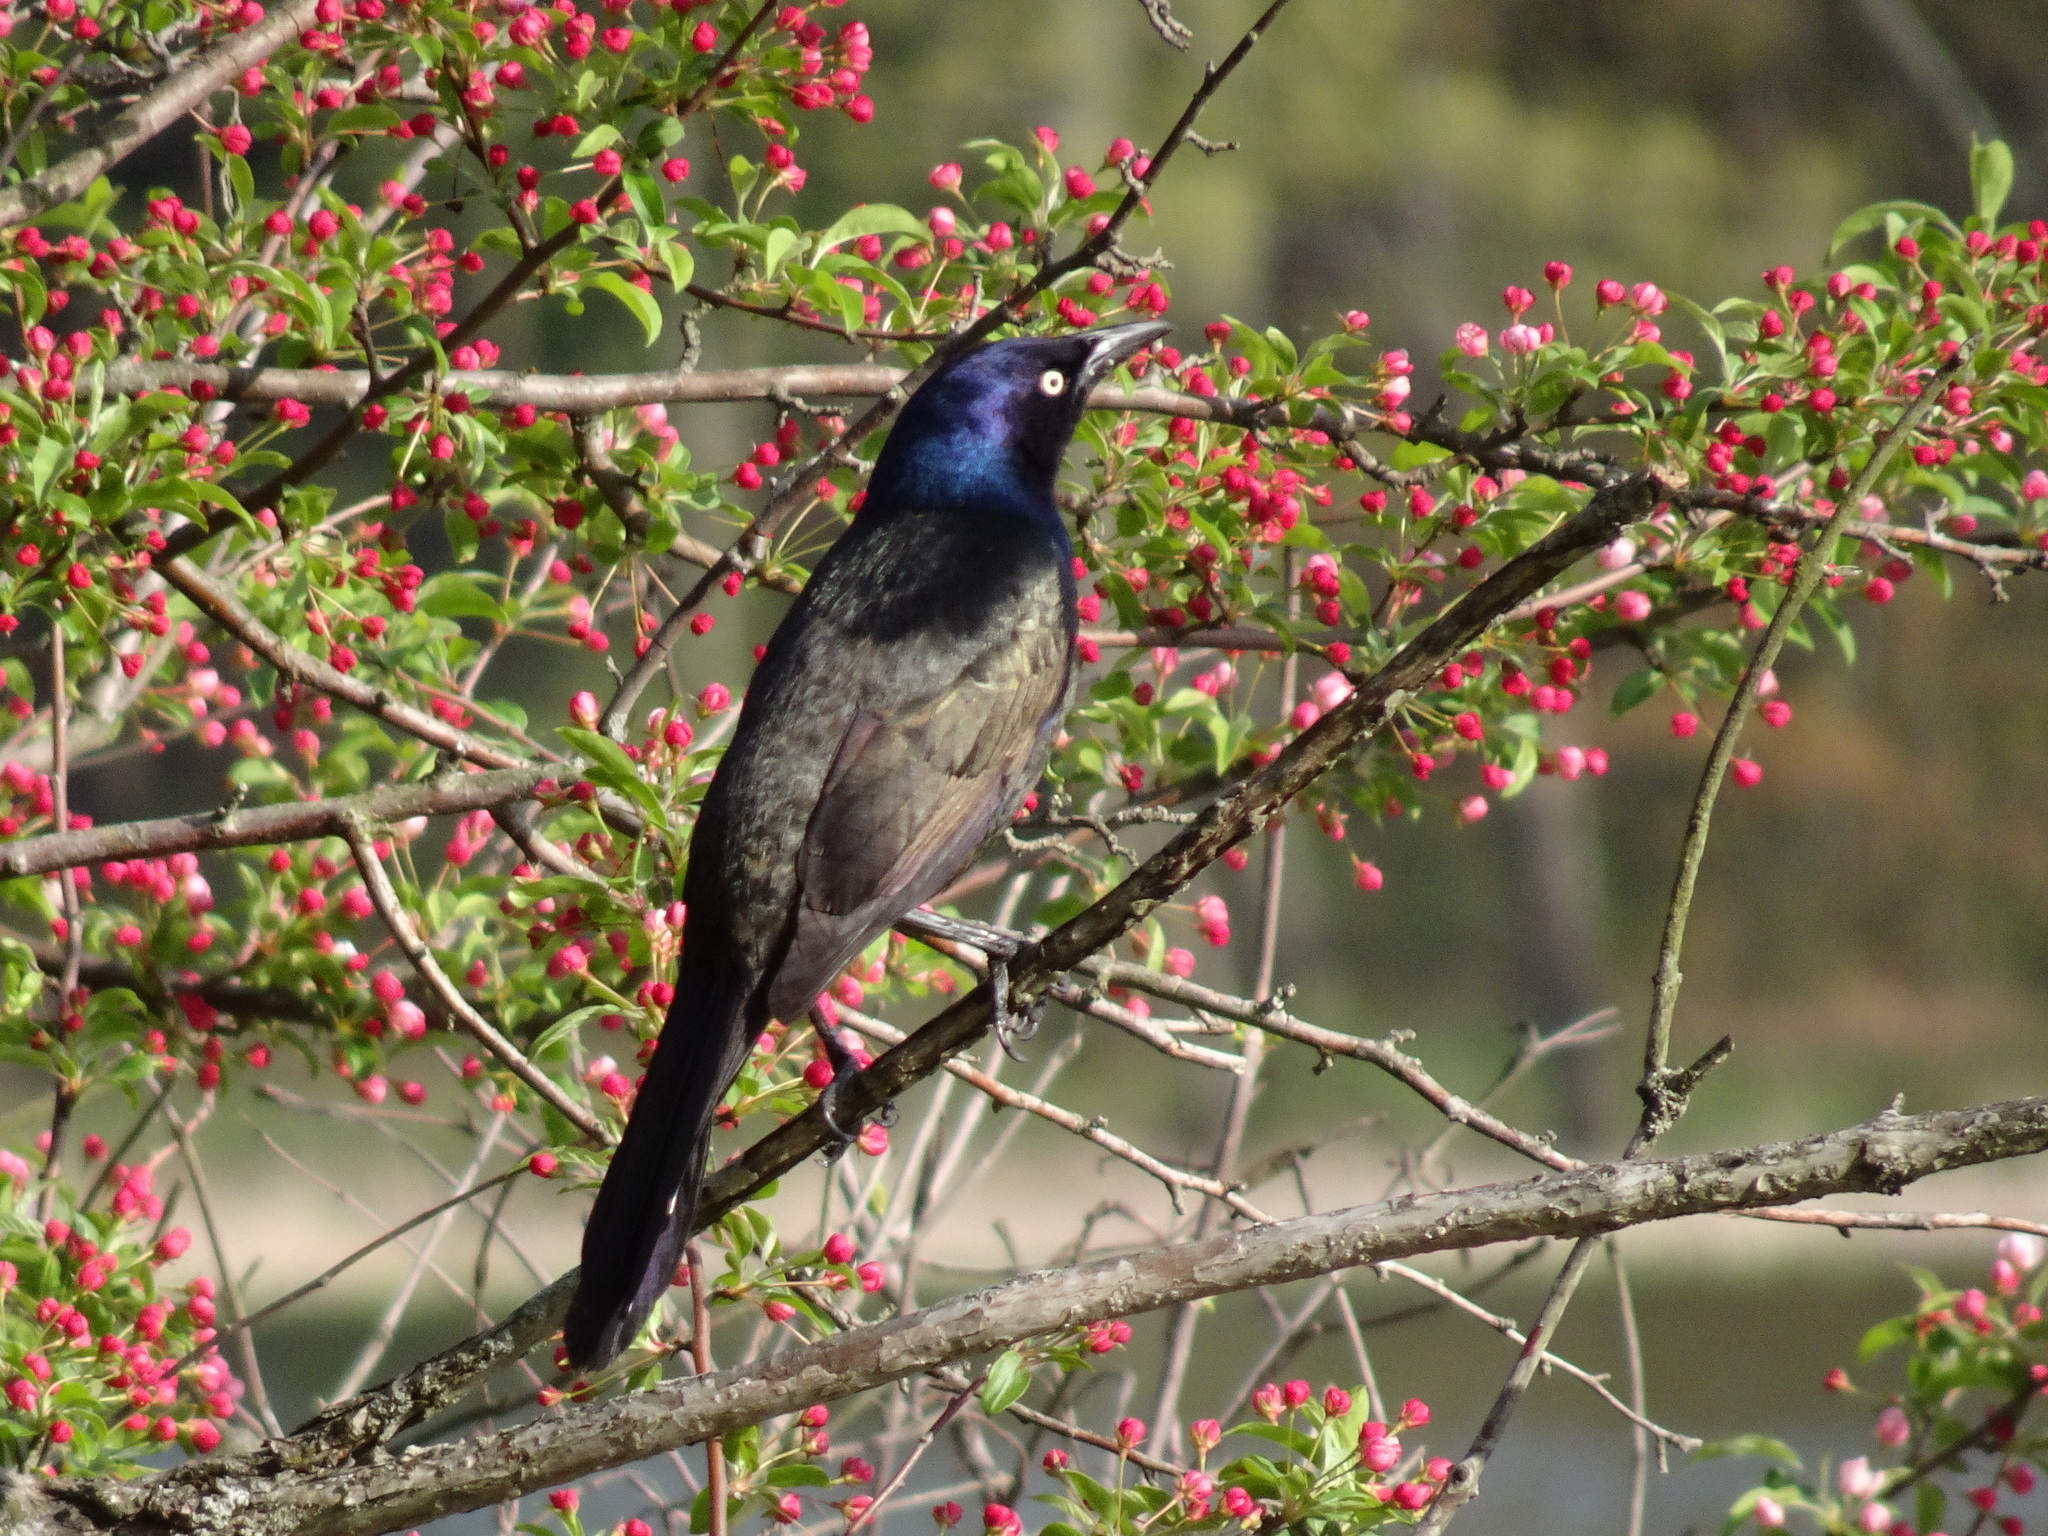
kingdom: Animalia
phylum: Chordata
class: Aves
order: Passeriformes
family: Icteridae
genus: Quiscalus
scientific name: Quiscalus quiscula
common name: Common grackle
